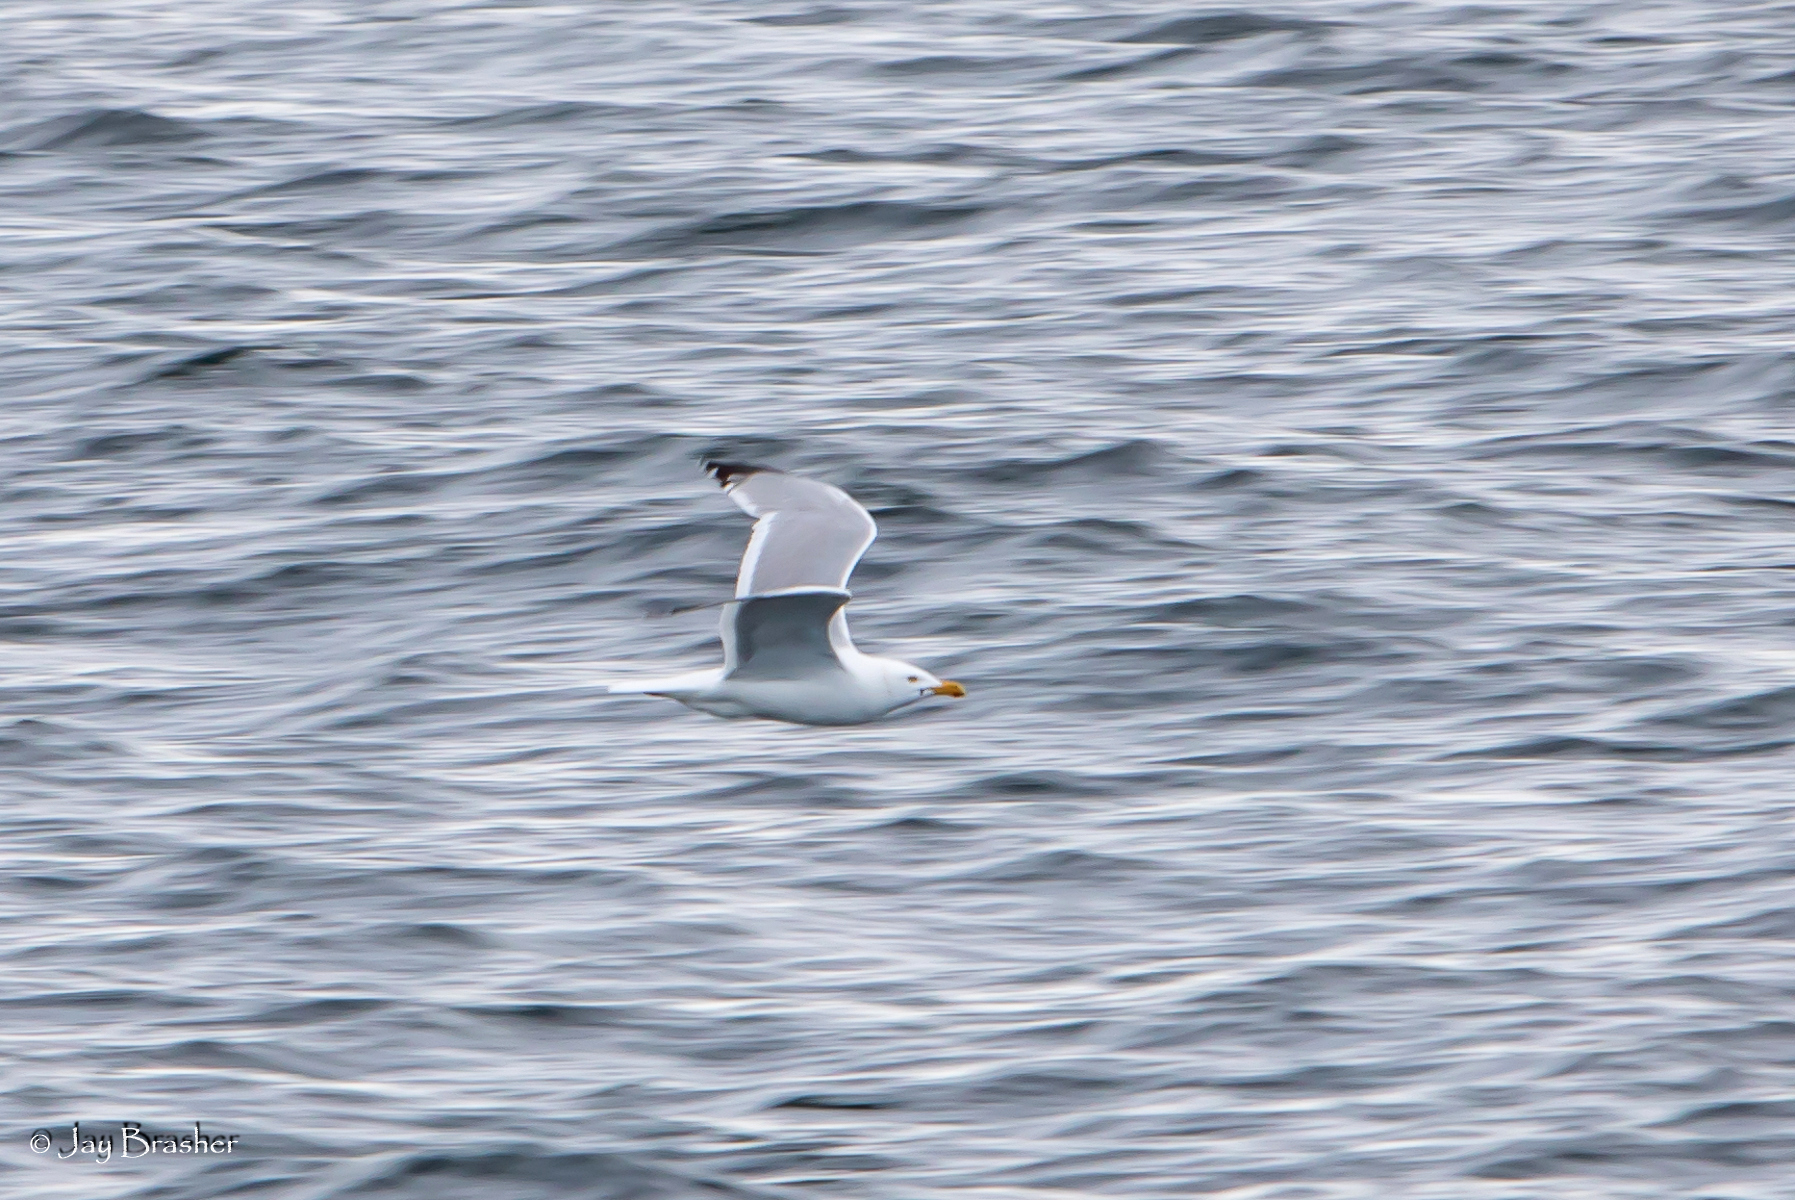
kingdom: Animalia
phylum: Chordata
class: Aves
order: Charadriiformes
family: Laridae
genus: Larus
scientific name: Larus argentatus
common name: Herring gull
